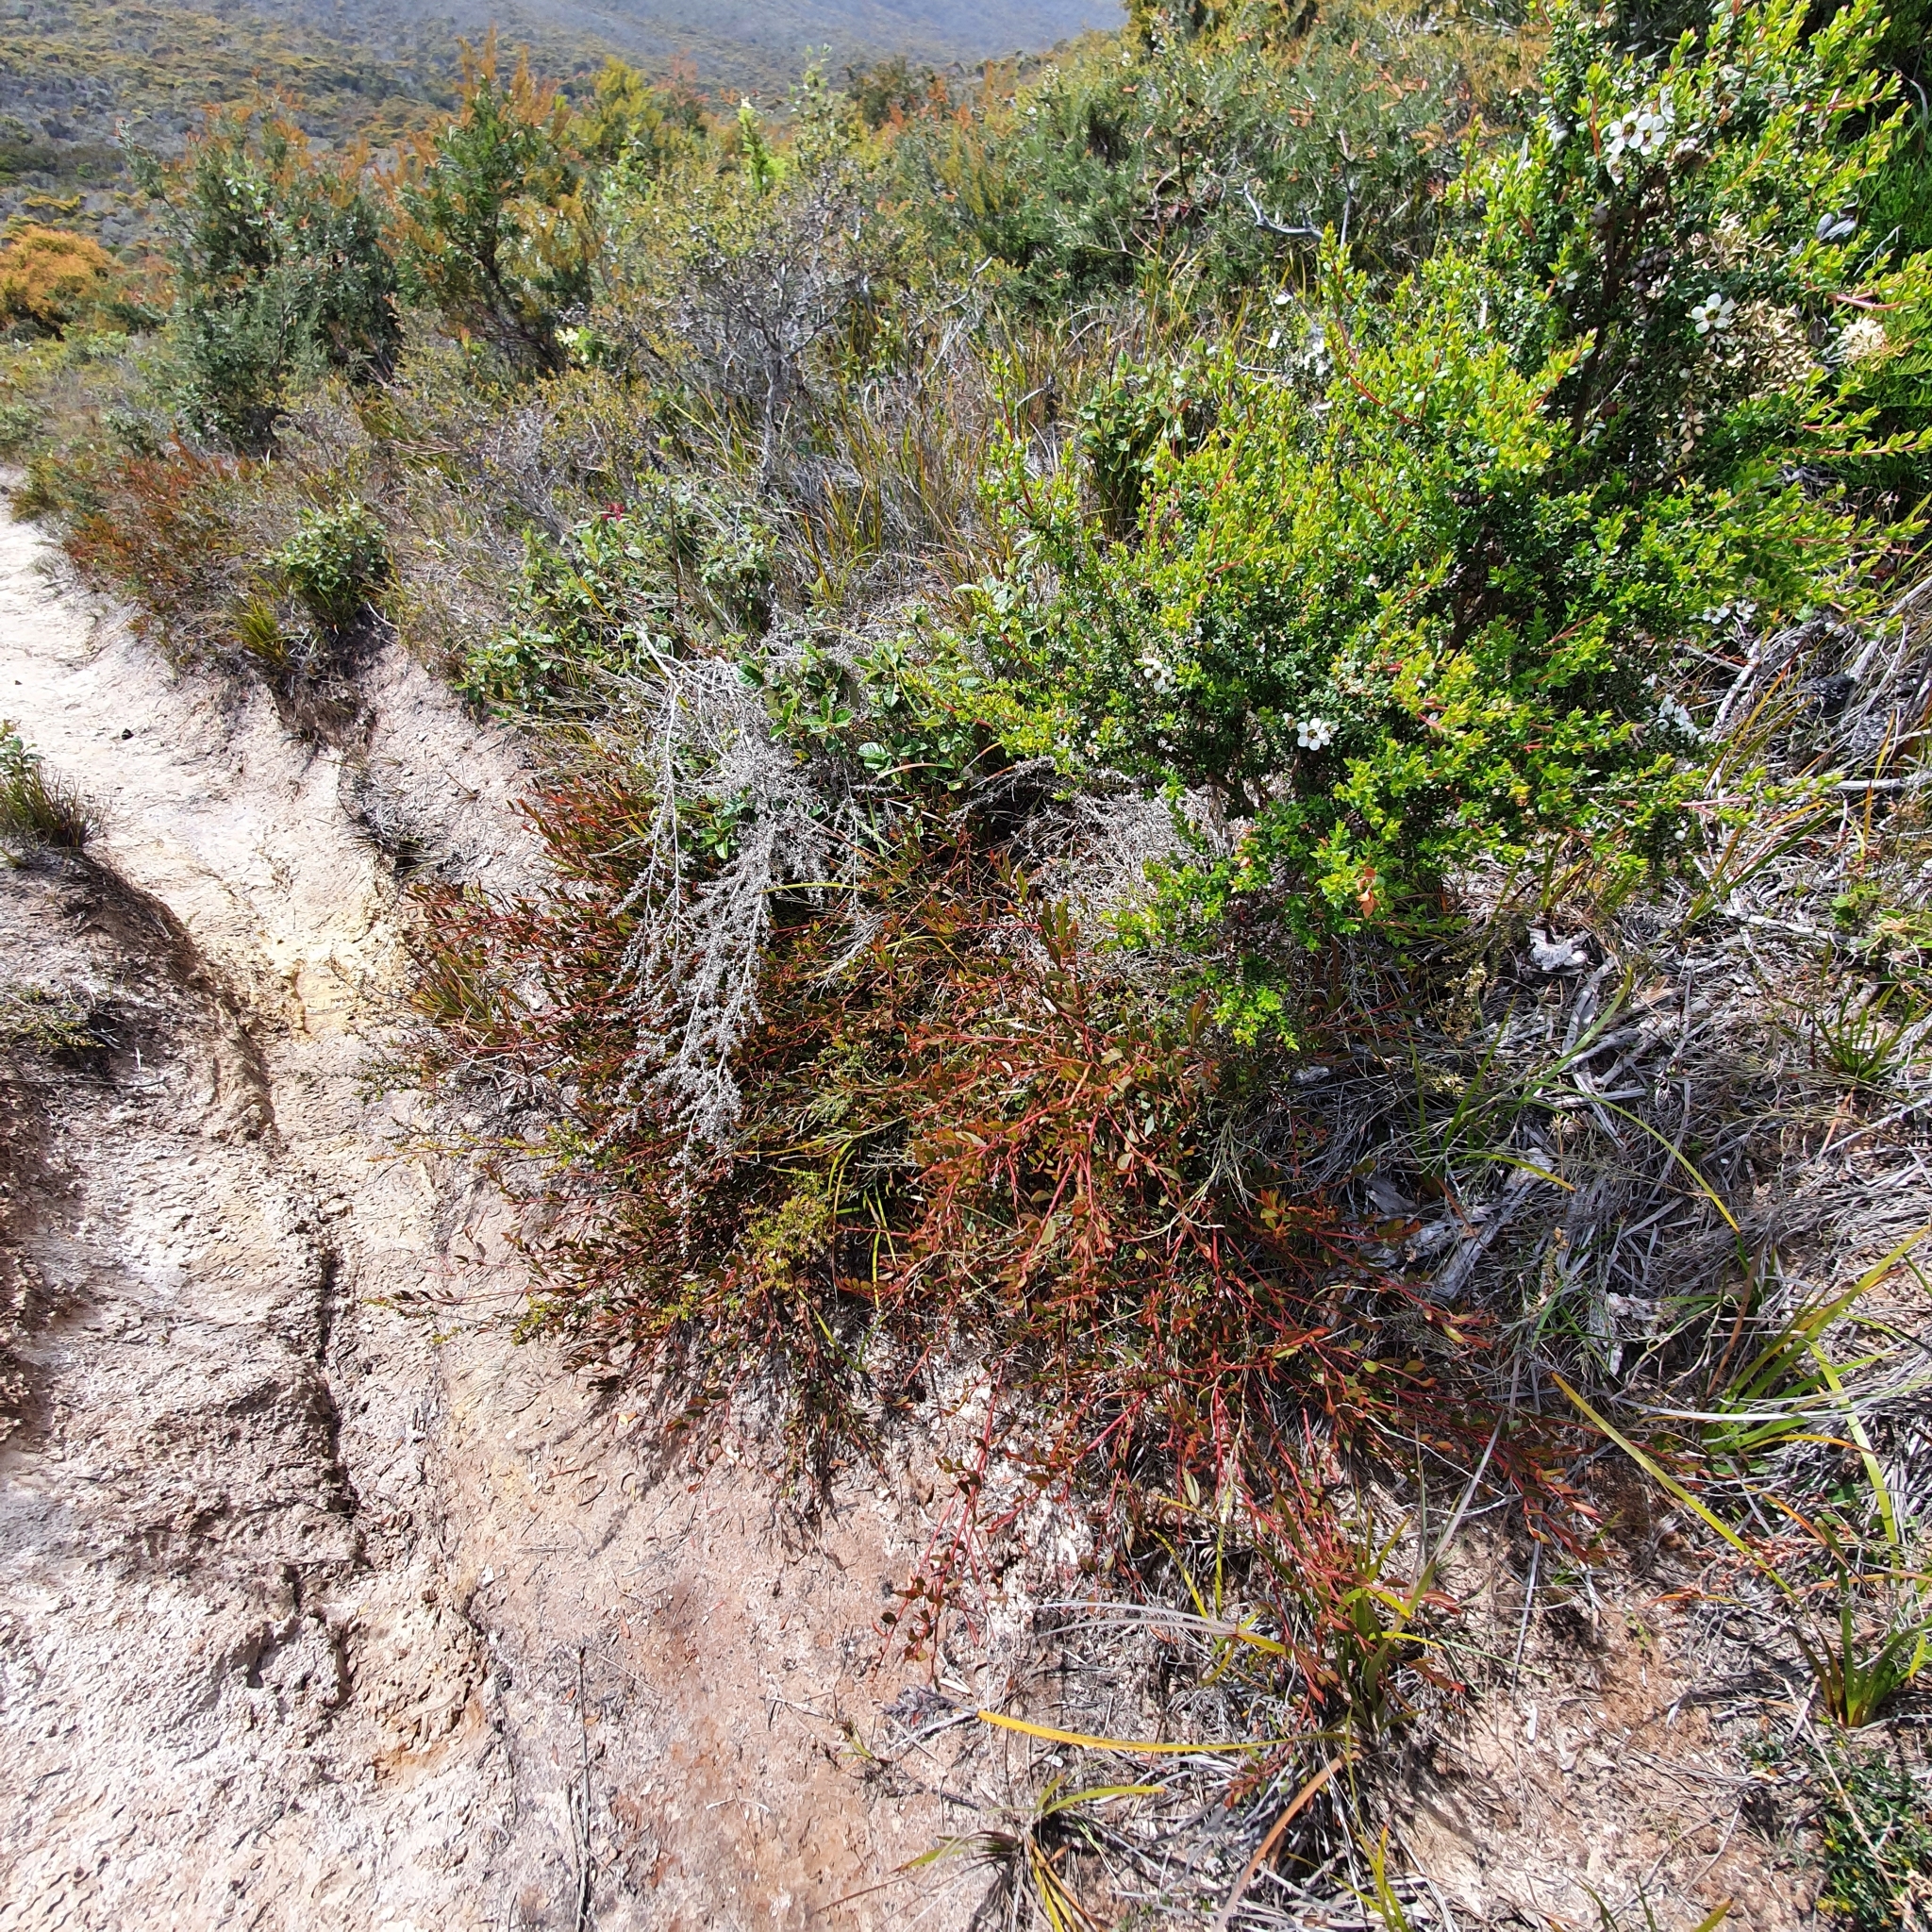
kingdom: Plantae
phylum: Tracheophyta
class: Magnoliopsida
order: Fabales
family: Fabaceae
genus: Acacia
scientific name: Acacia myrtifolia
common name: Myrtle wattle
